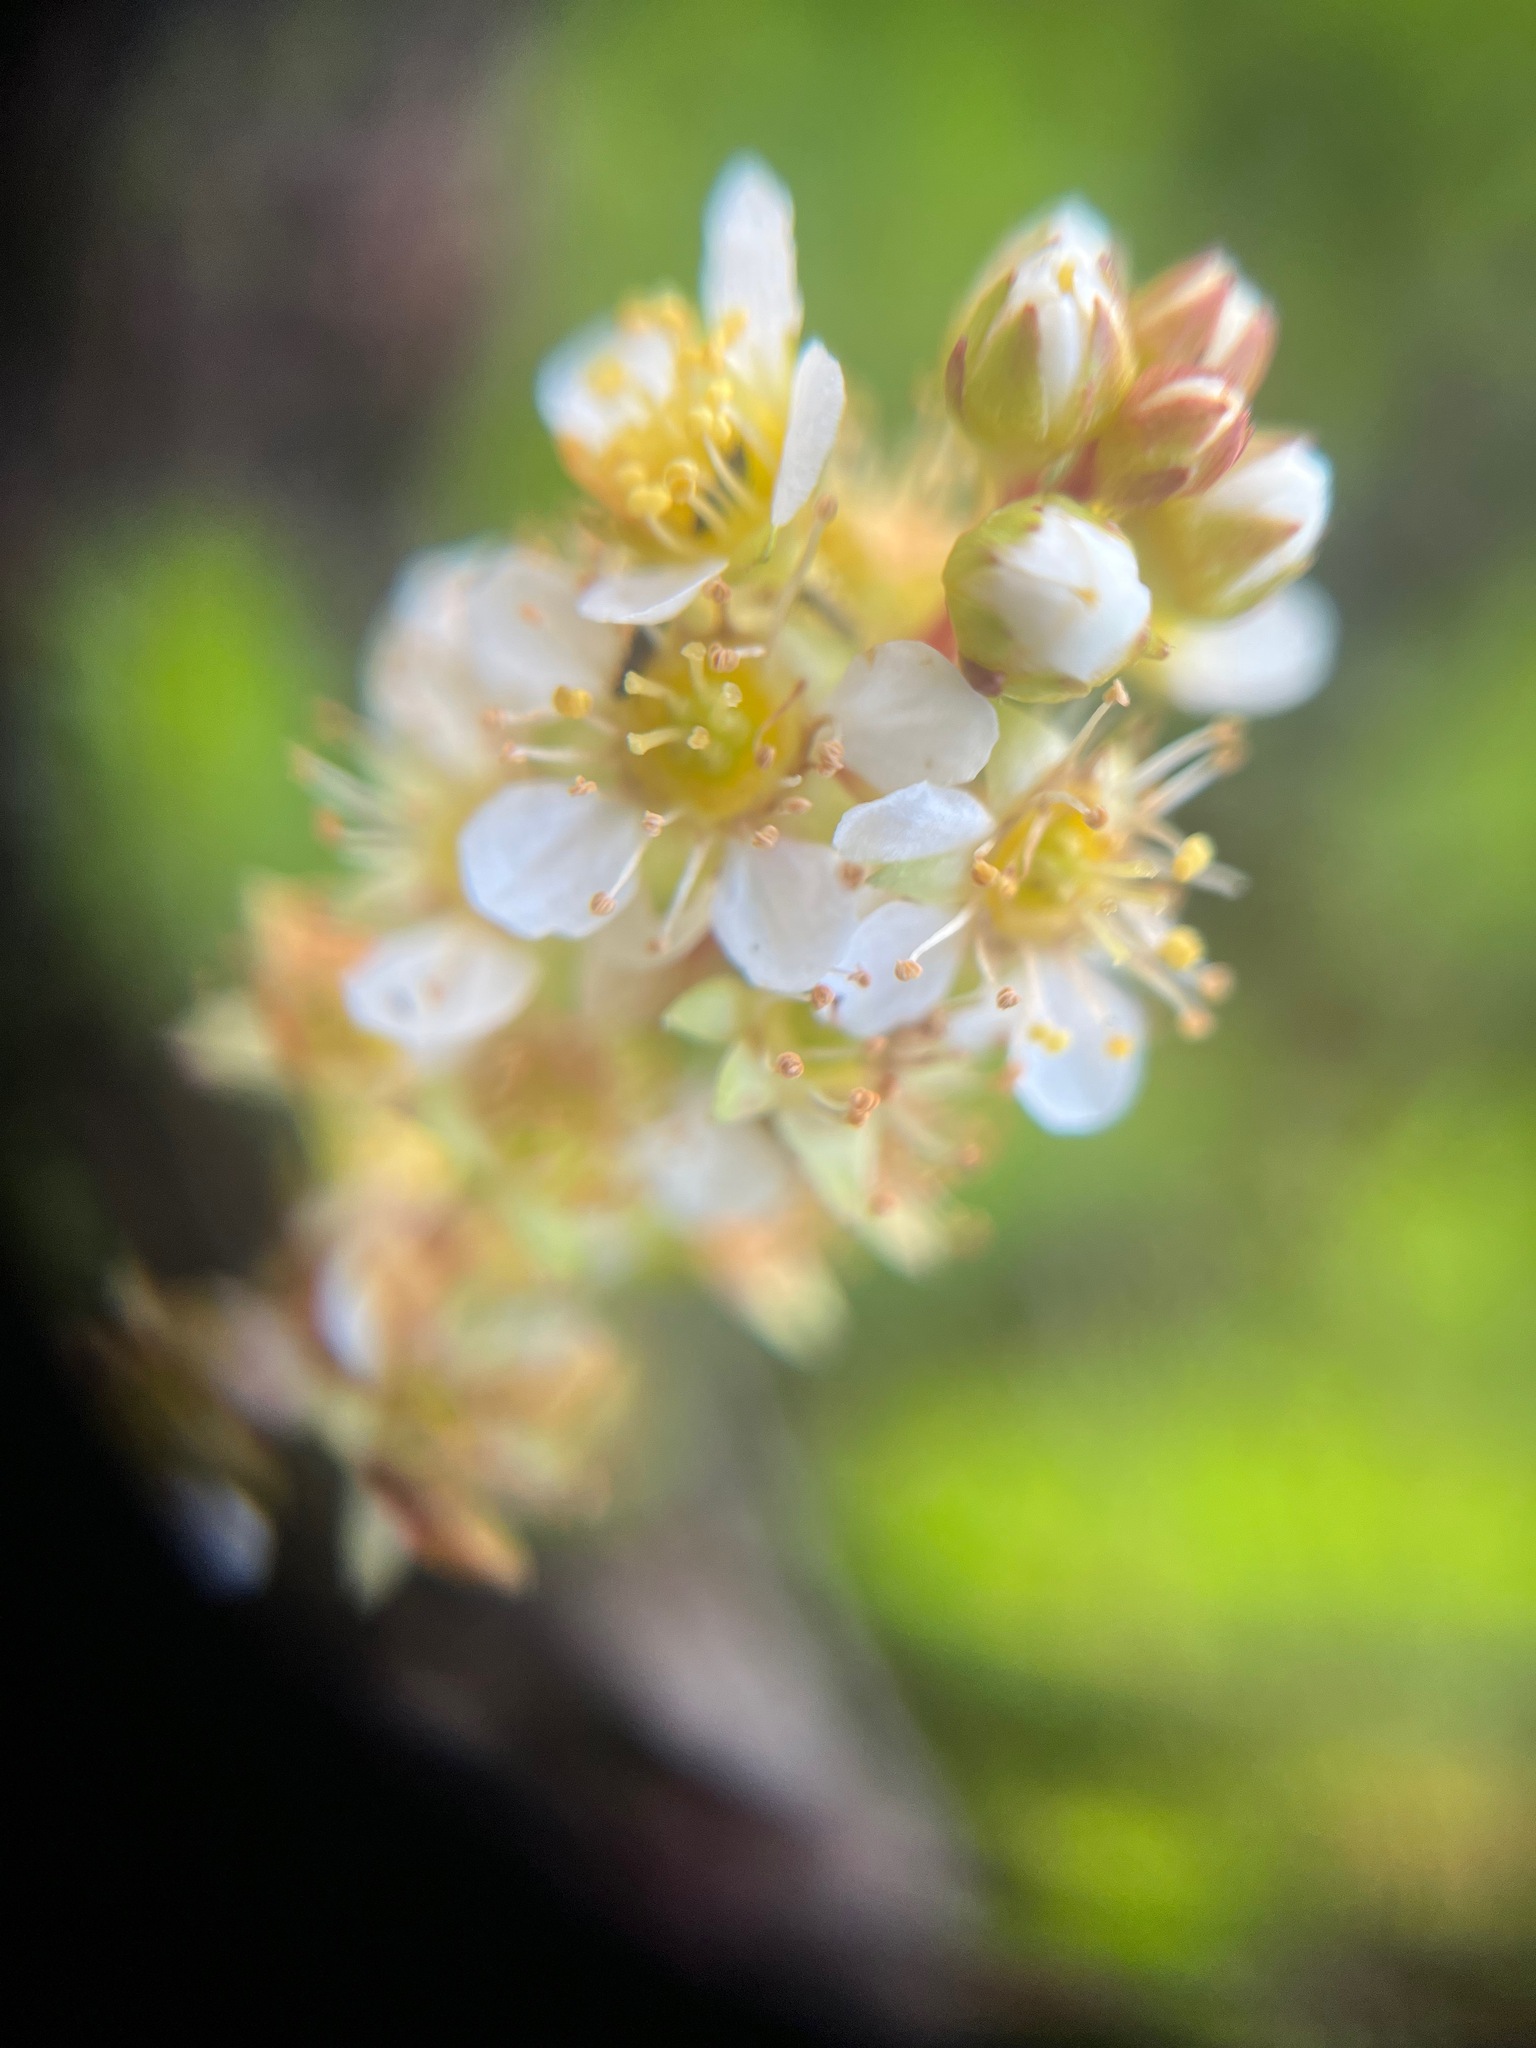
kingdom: Plantae
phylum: Tracheophyta
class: Magnoliopsida
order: Rosales
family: Rosaceae
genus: Luetkea
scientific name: Luetkea pectinata
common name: Partridgefoot
